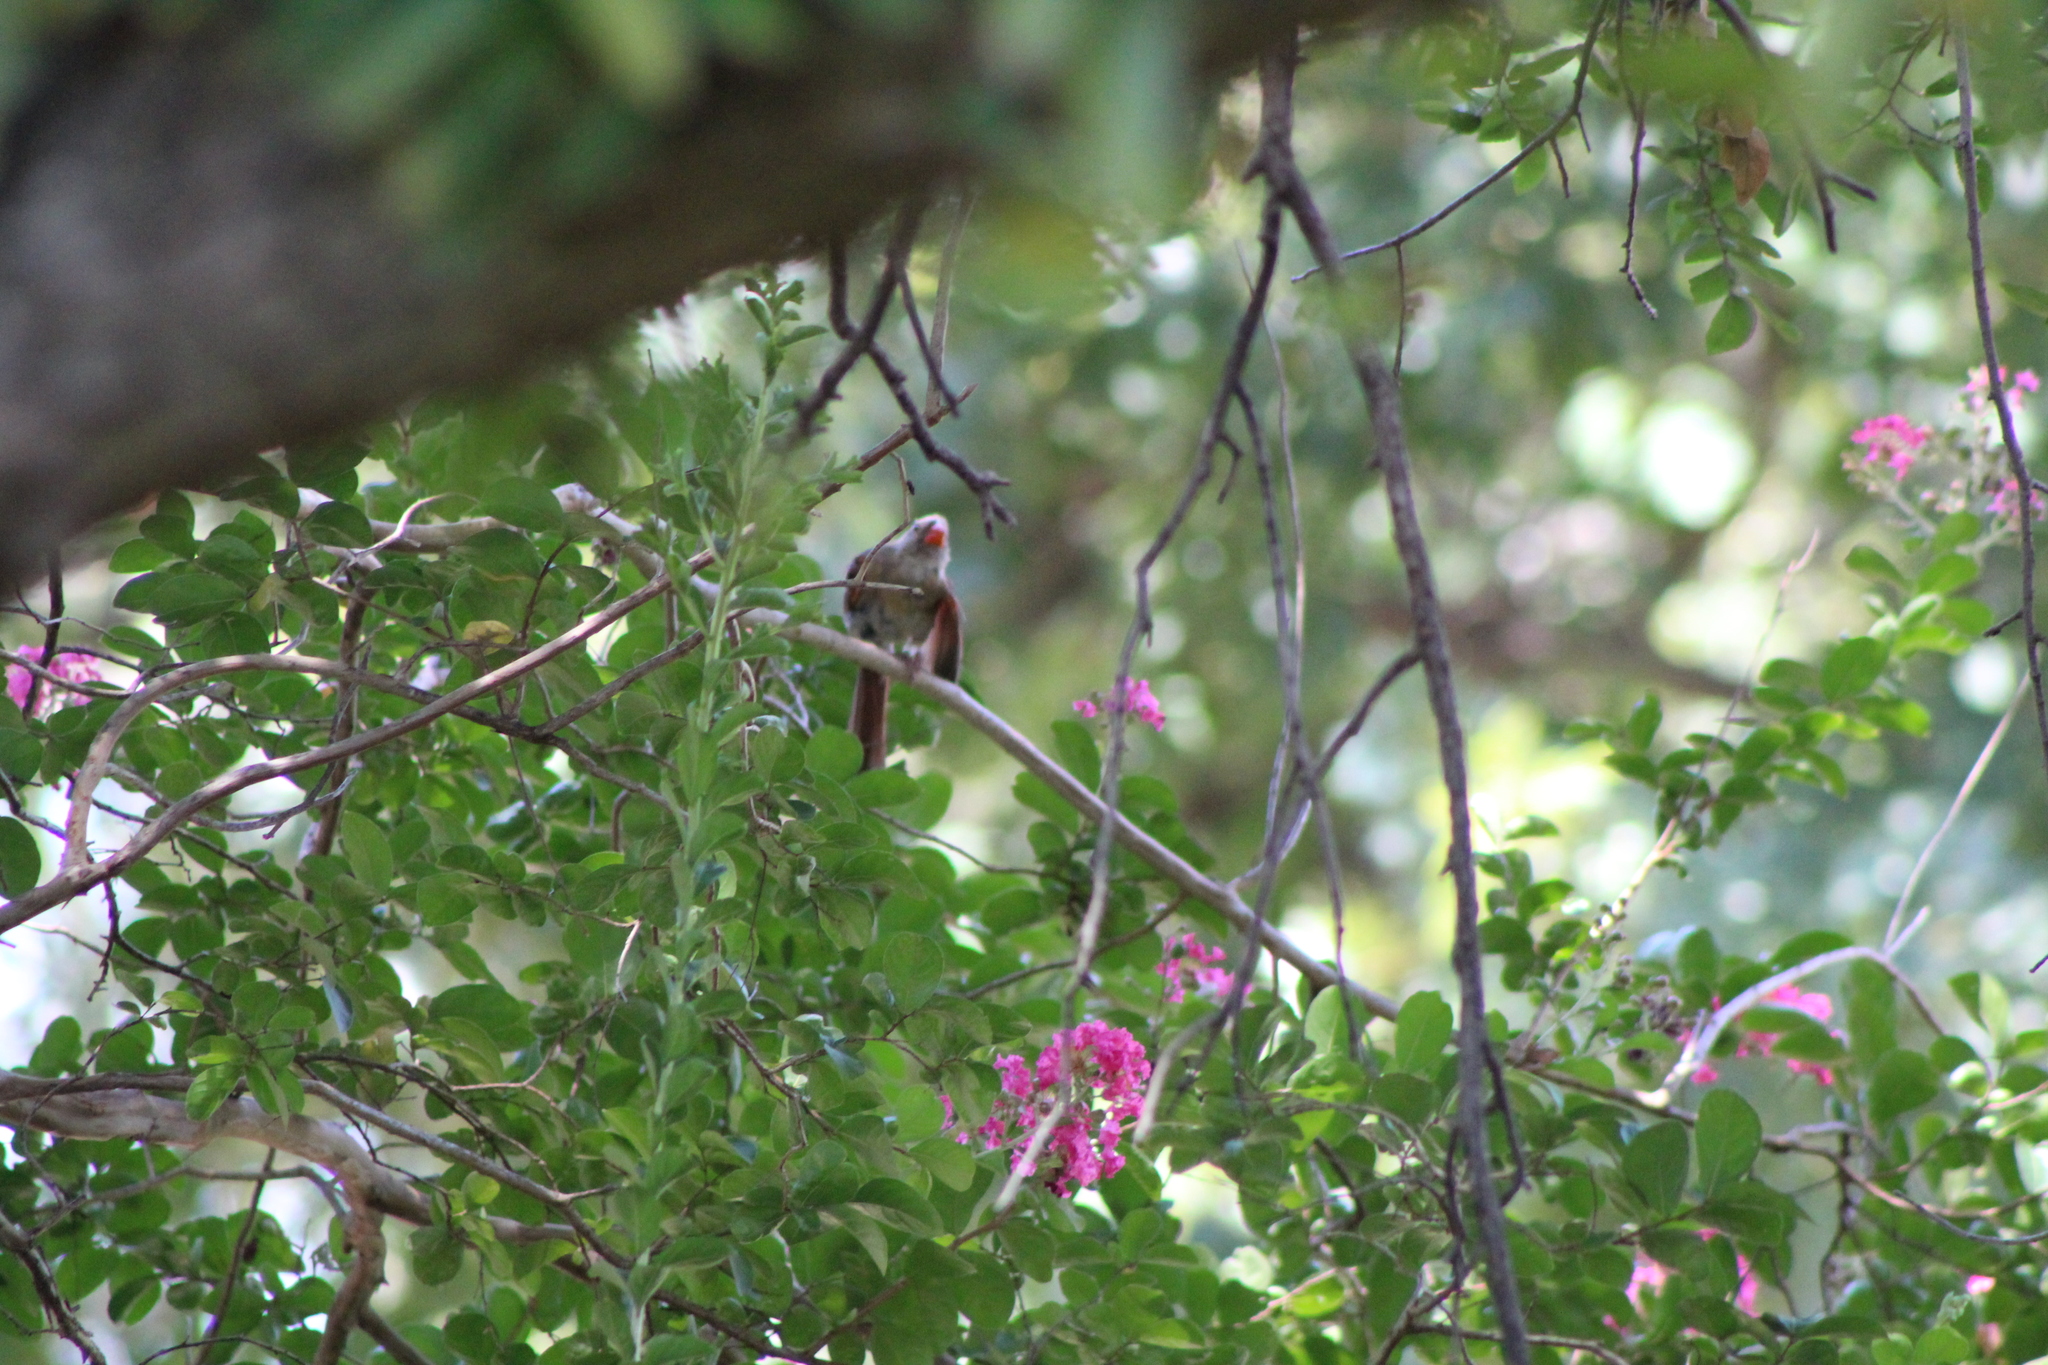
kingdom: Animalia
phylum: Chordata
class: Aves
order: Passeriformes
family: Cardinalidae
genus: Cardinalis
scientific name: Cardinalis cardinalis
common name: Northern cardinal
